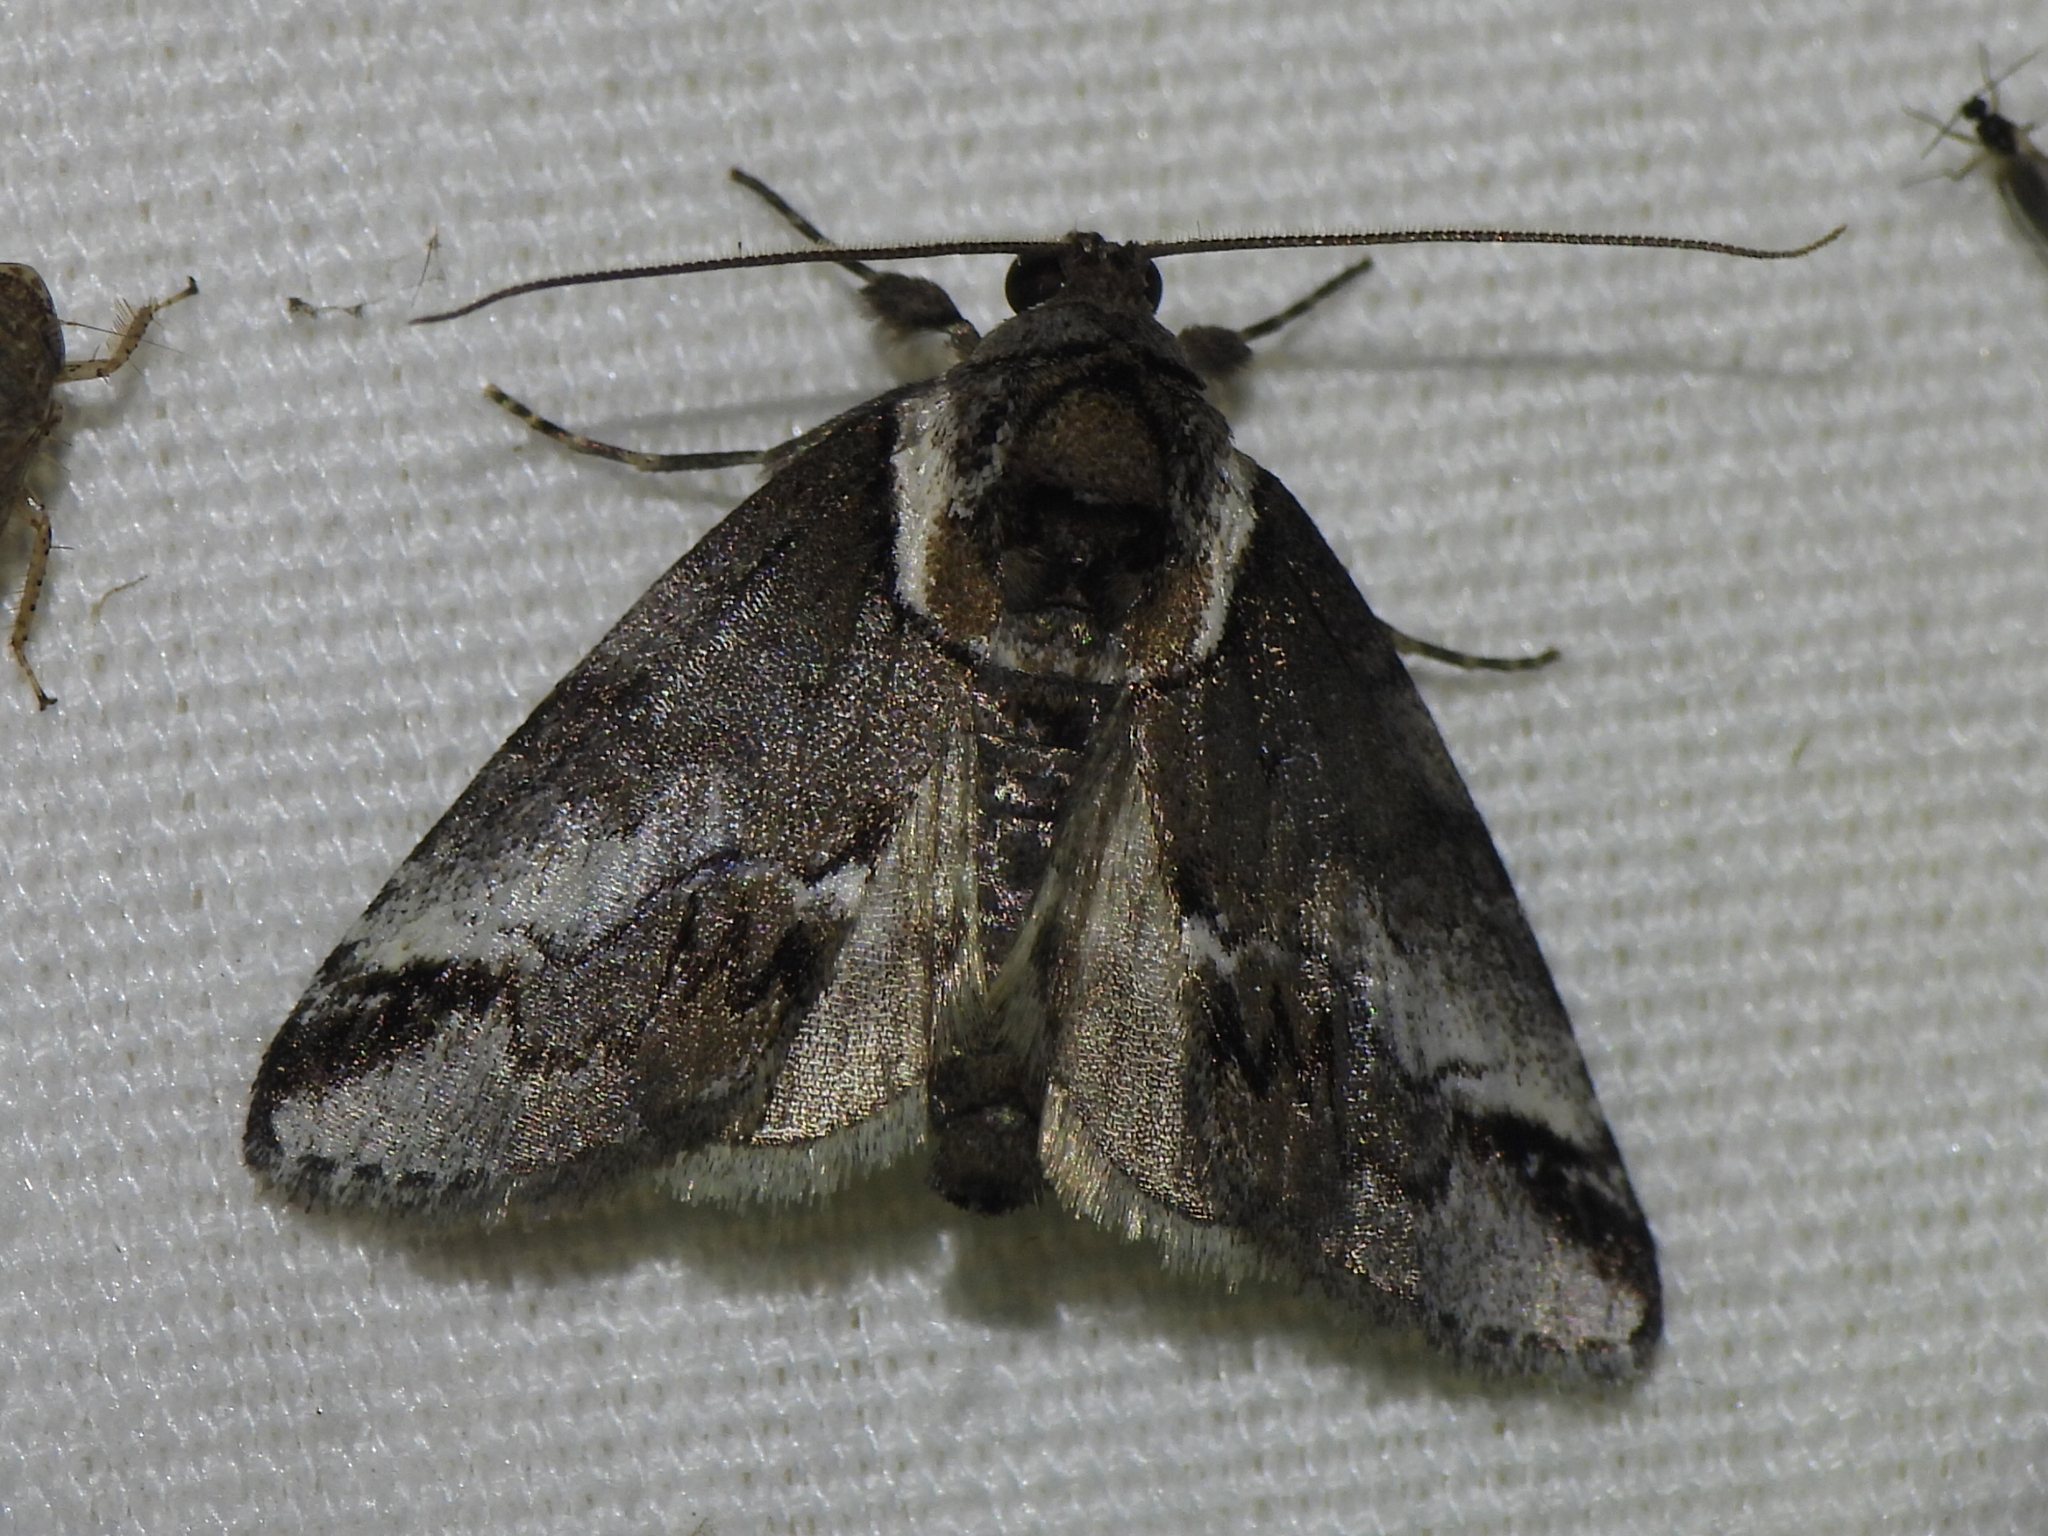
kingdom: Animalia
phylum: Arthropoda
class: Insecta
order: Lepidoptera
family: Nolidae
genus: Baileya
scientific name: Baileya australis
